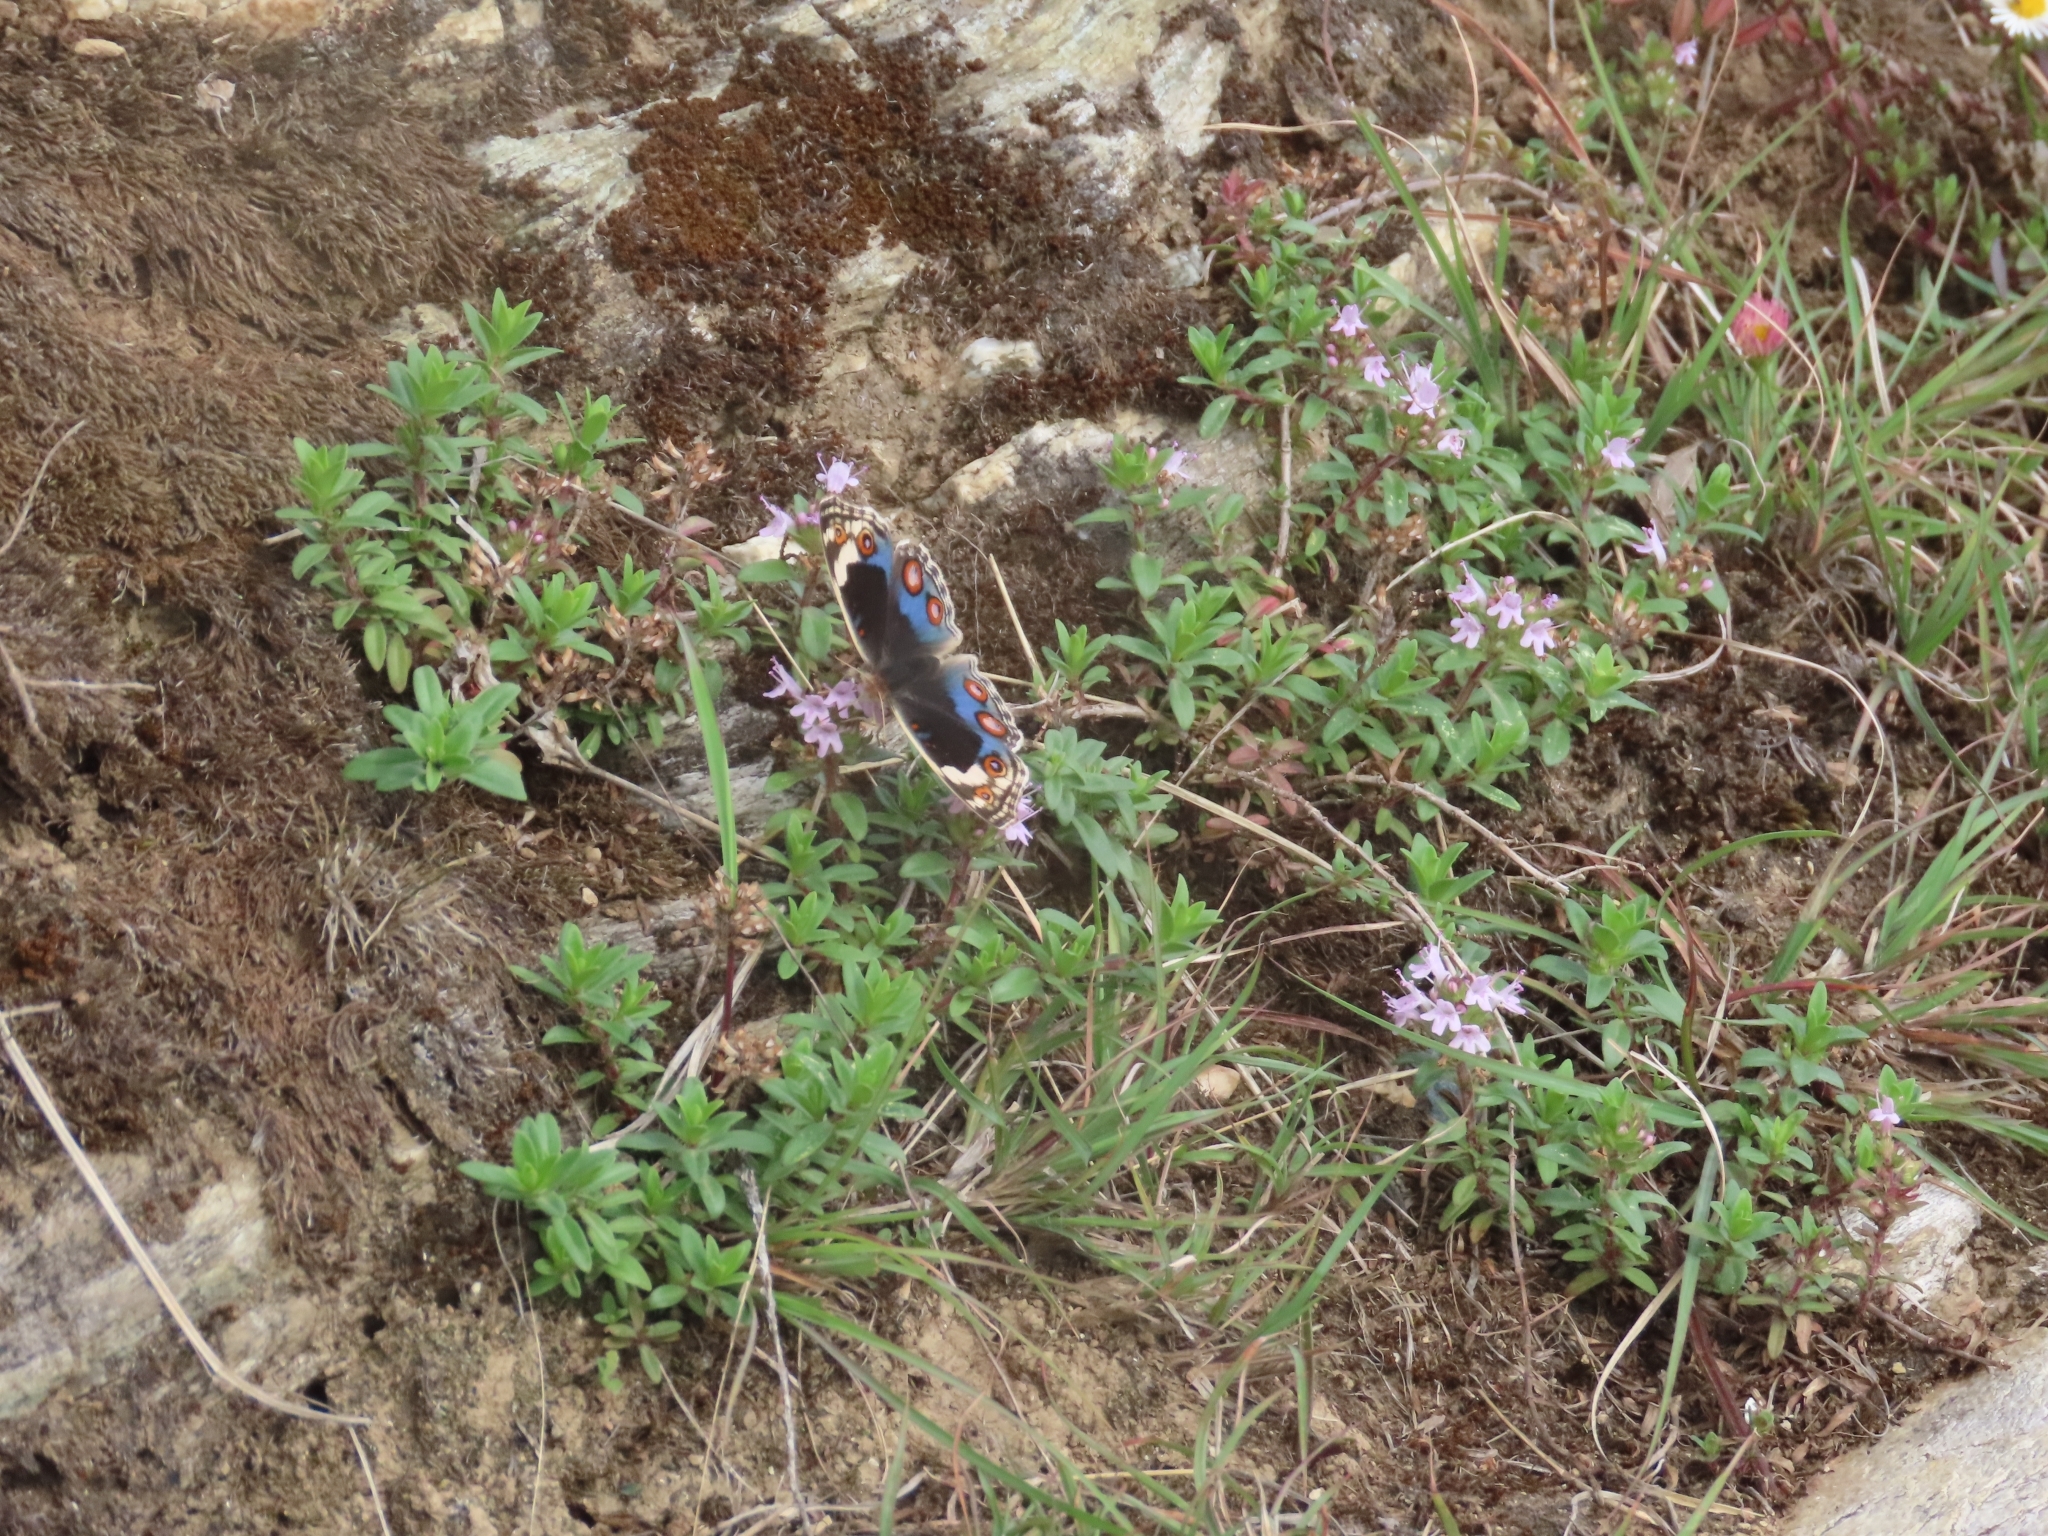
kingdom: Animalia
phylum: Arthropoda
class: Insecta
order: Lepidoptera
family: Nymphalidae
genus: Junonia
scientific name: Junonia orithya
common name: Blue pansy
